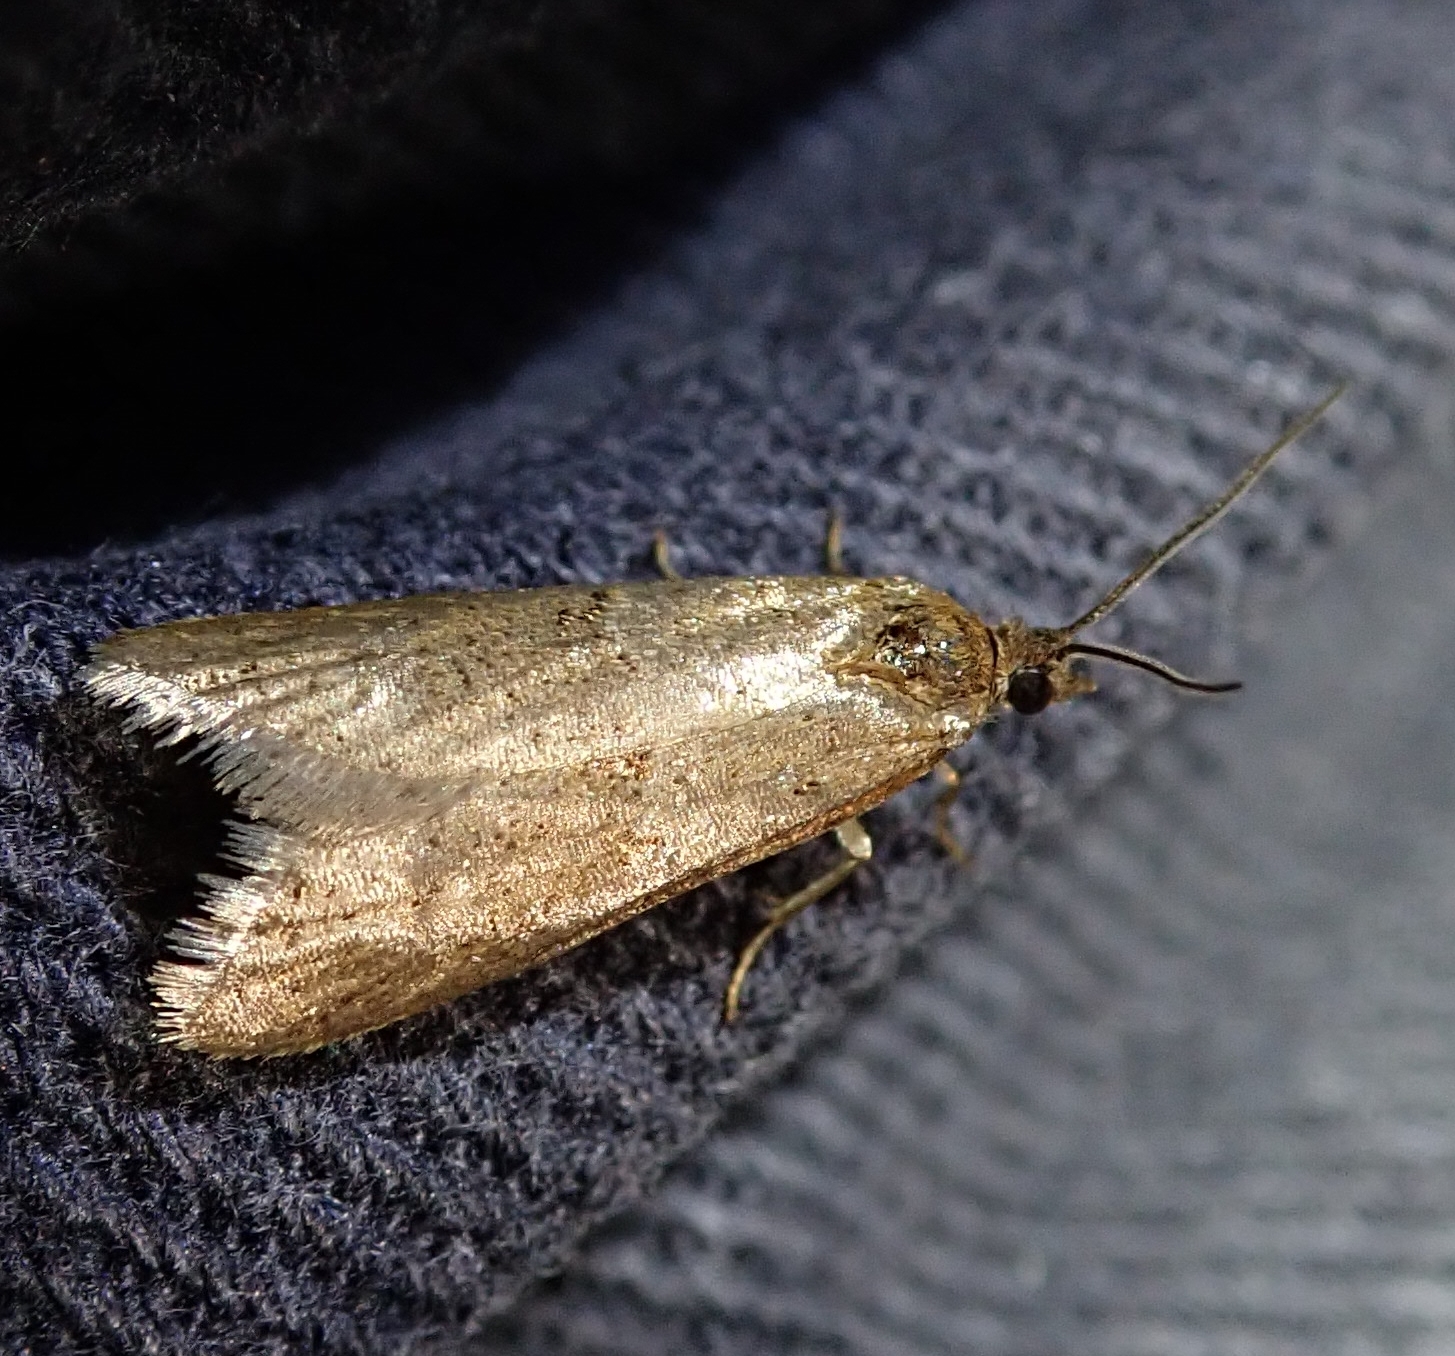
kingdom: Animalia
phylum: Arthropoda
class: Insecta
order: Lepidoptera
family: Tortricidae
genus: Tortricodes
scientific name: Tortricodes alternella
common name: Winter shade
